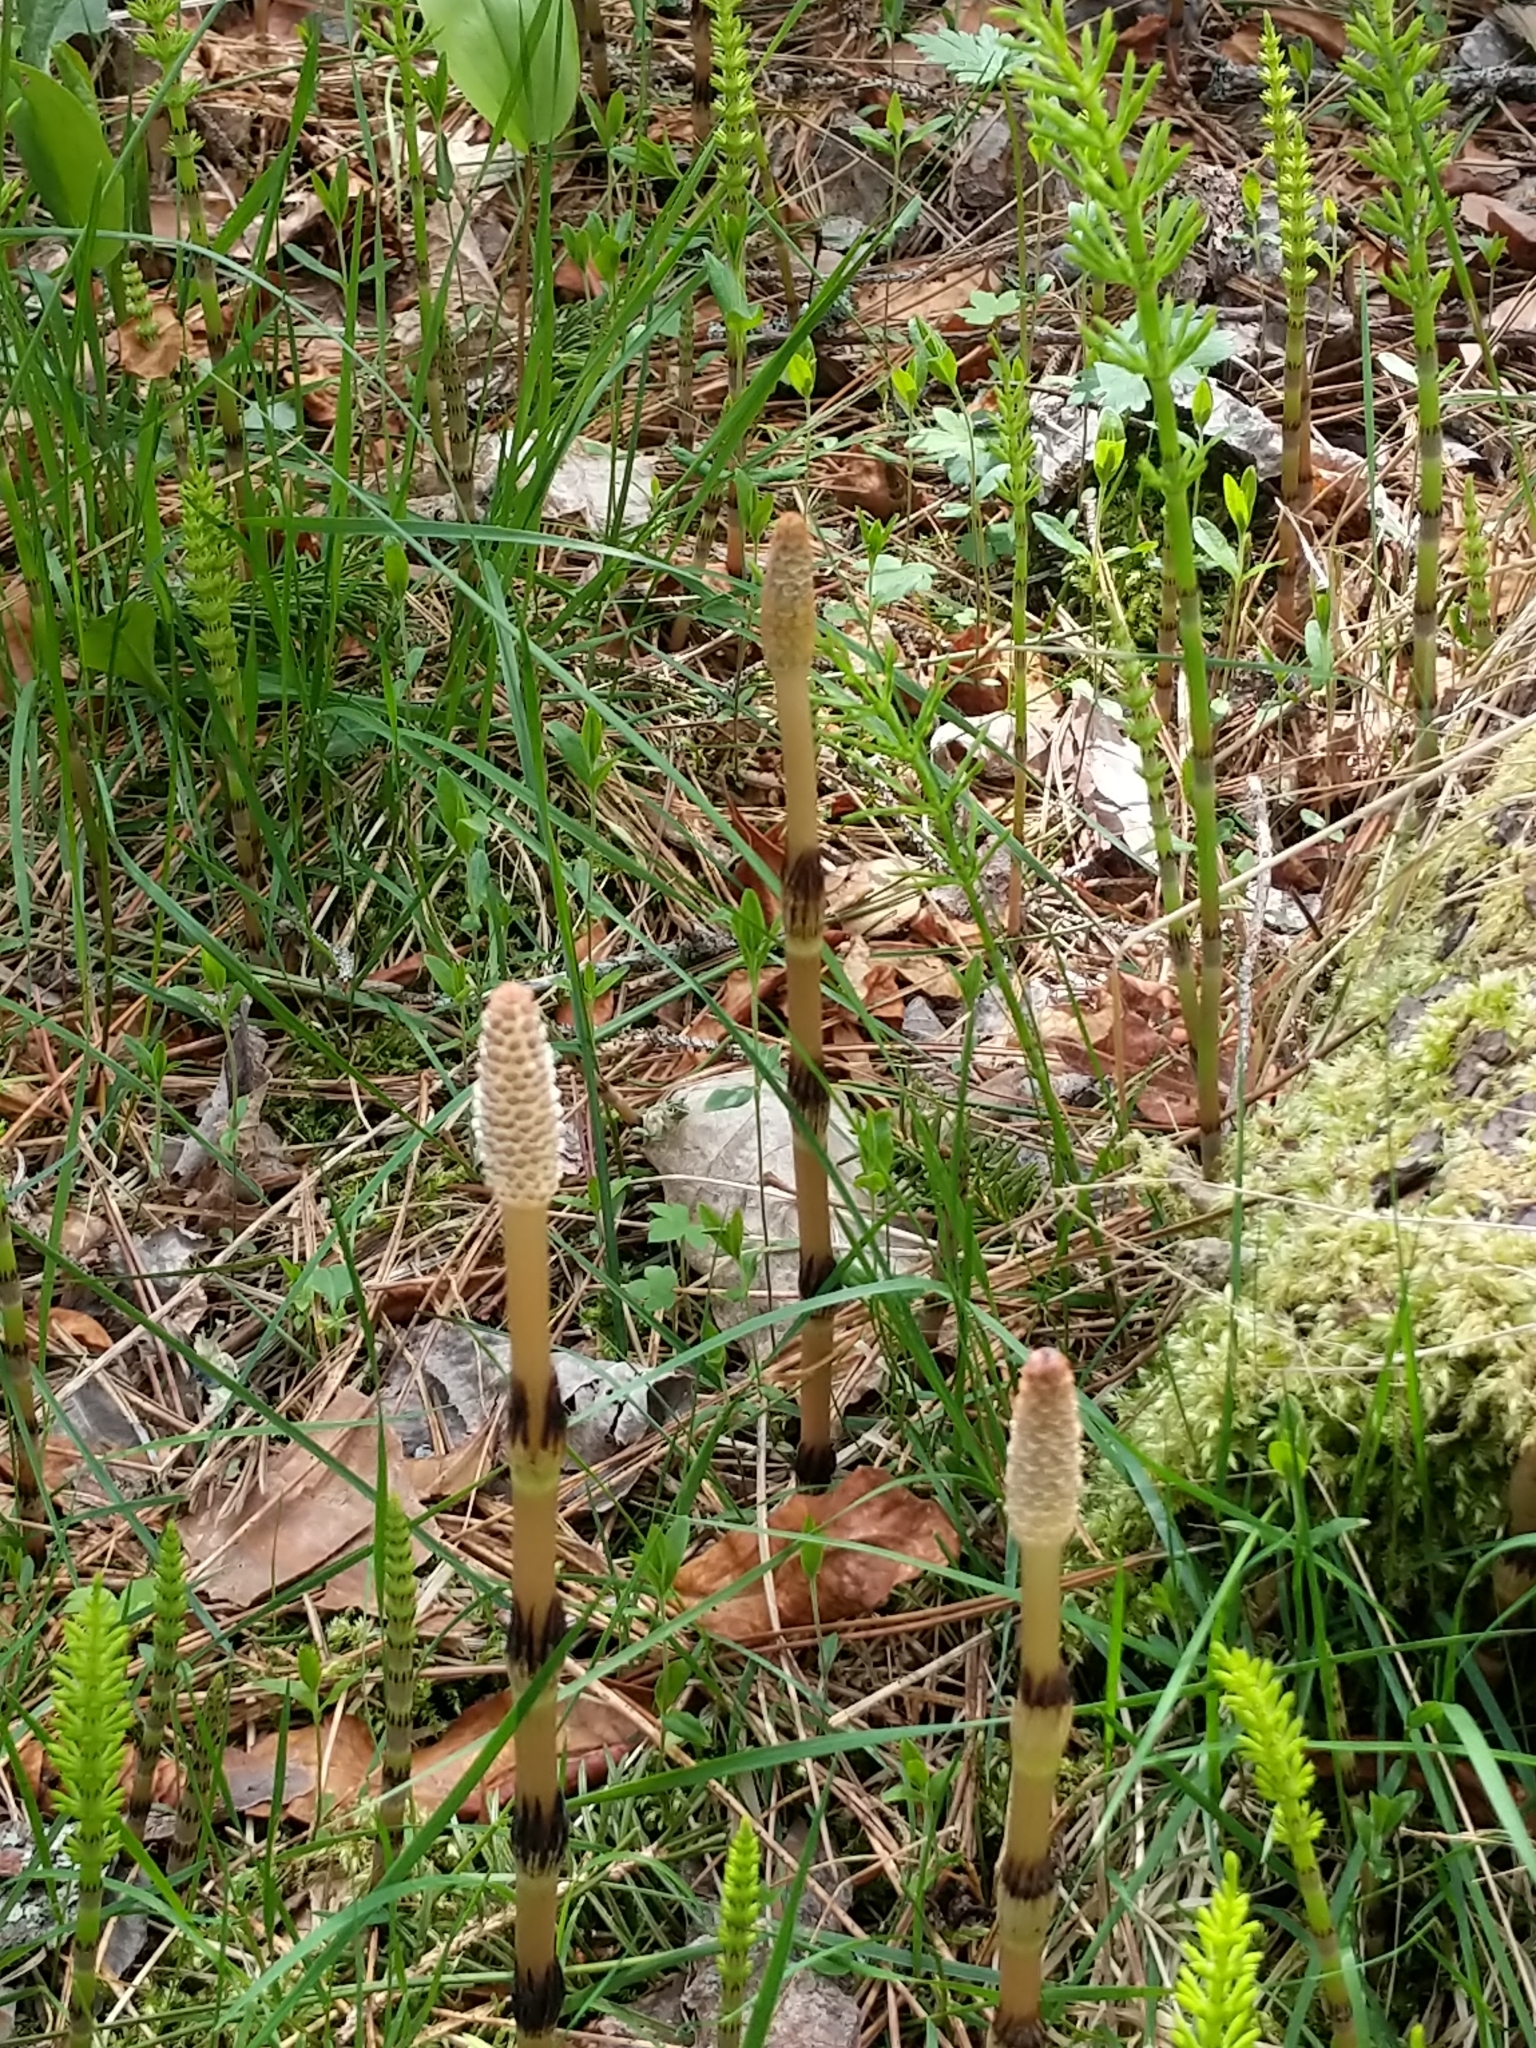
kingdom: Plantae
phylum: Tracheophyta
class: Polypodiopsida
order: Equisetales
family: Equisetaceae
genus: Equisetum
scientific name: Equisetum arvense
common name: Field horsetail
